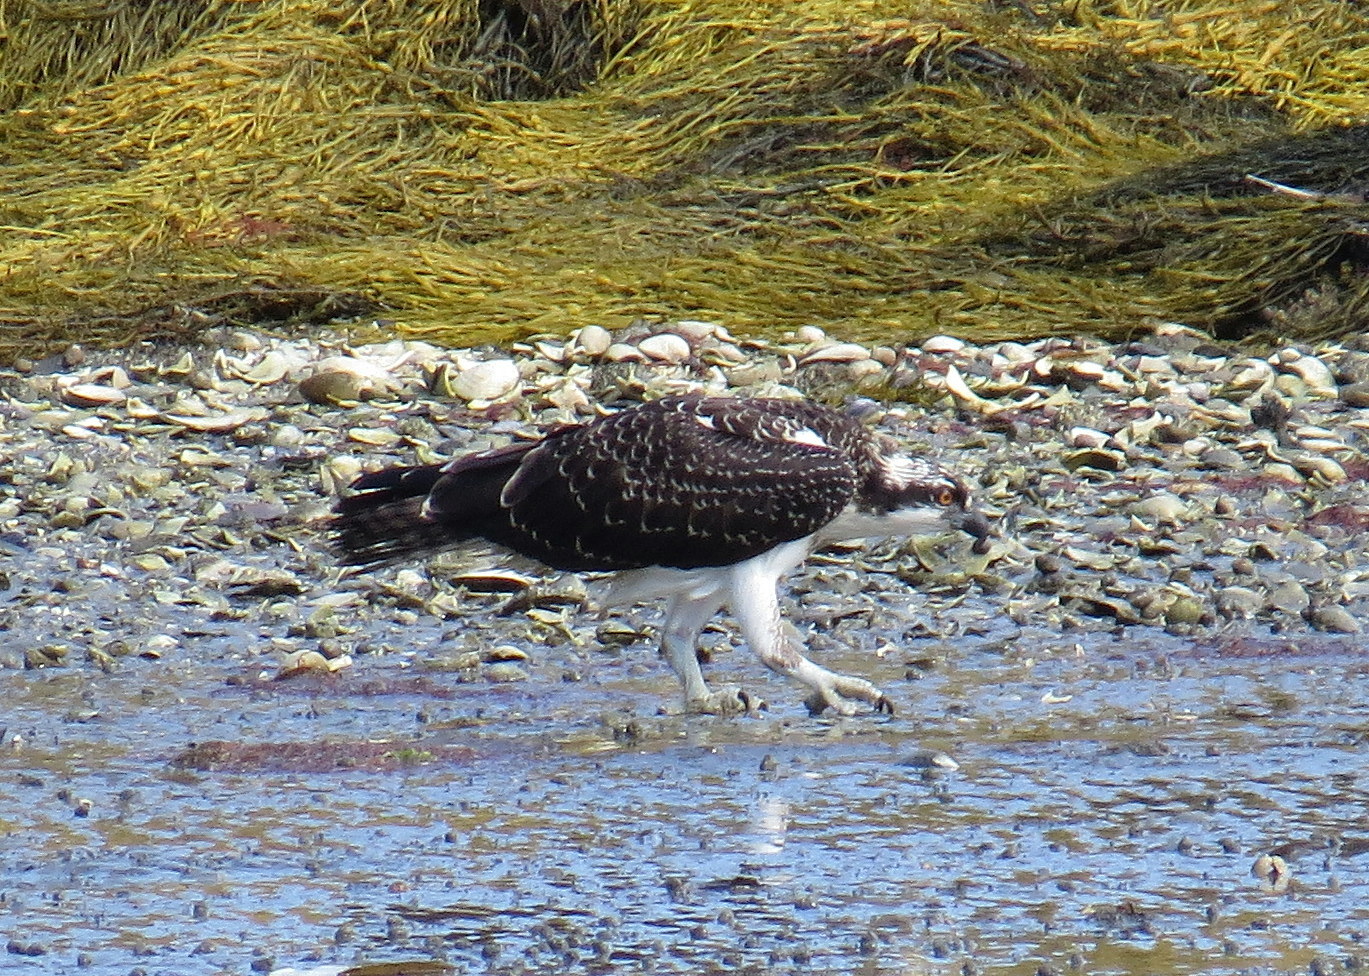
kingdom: Animalia
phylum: Chordata
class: Aves
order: Accipitriformes
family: Pandionidae
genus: Pandion
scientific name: Pandion haliaetus
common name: Osprey
